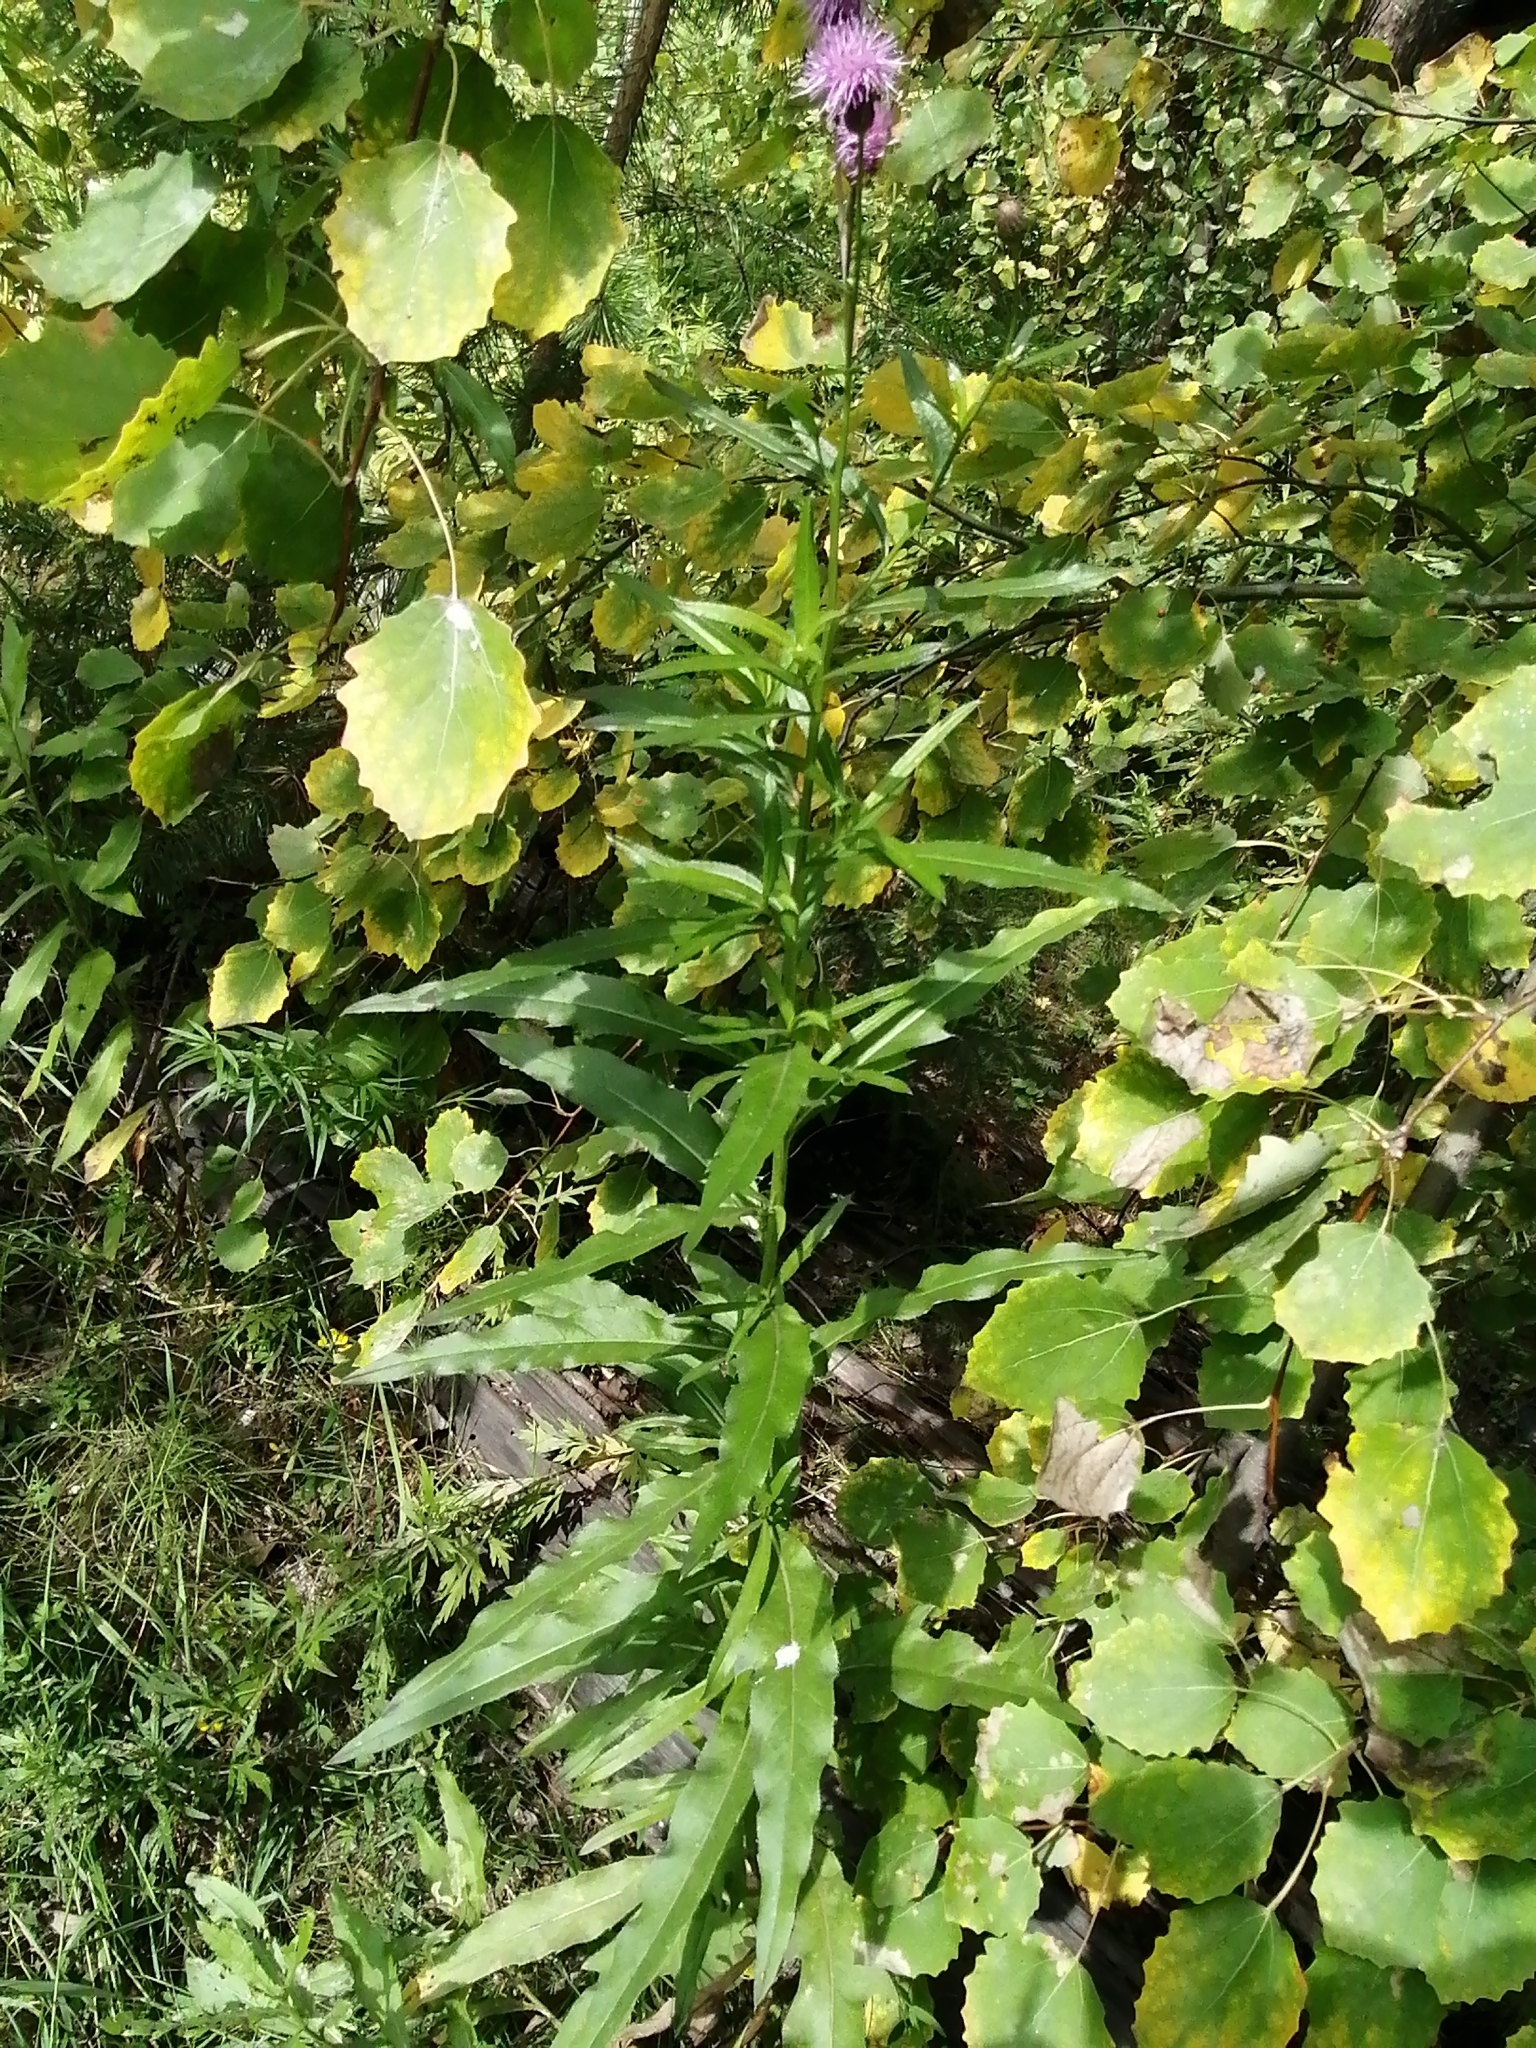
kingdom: Plantae
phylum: Tracheophyta
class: Magnoliopsida
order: Asterales
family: Asteraceae
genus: Cirsium
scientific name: Cirsium heterophyllum
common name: Melancholy thistle
